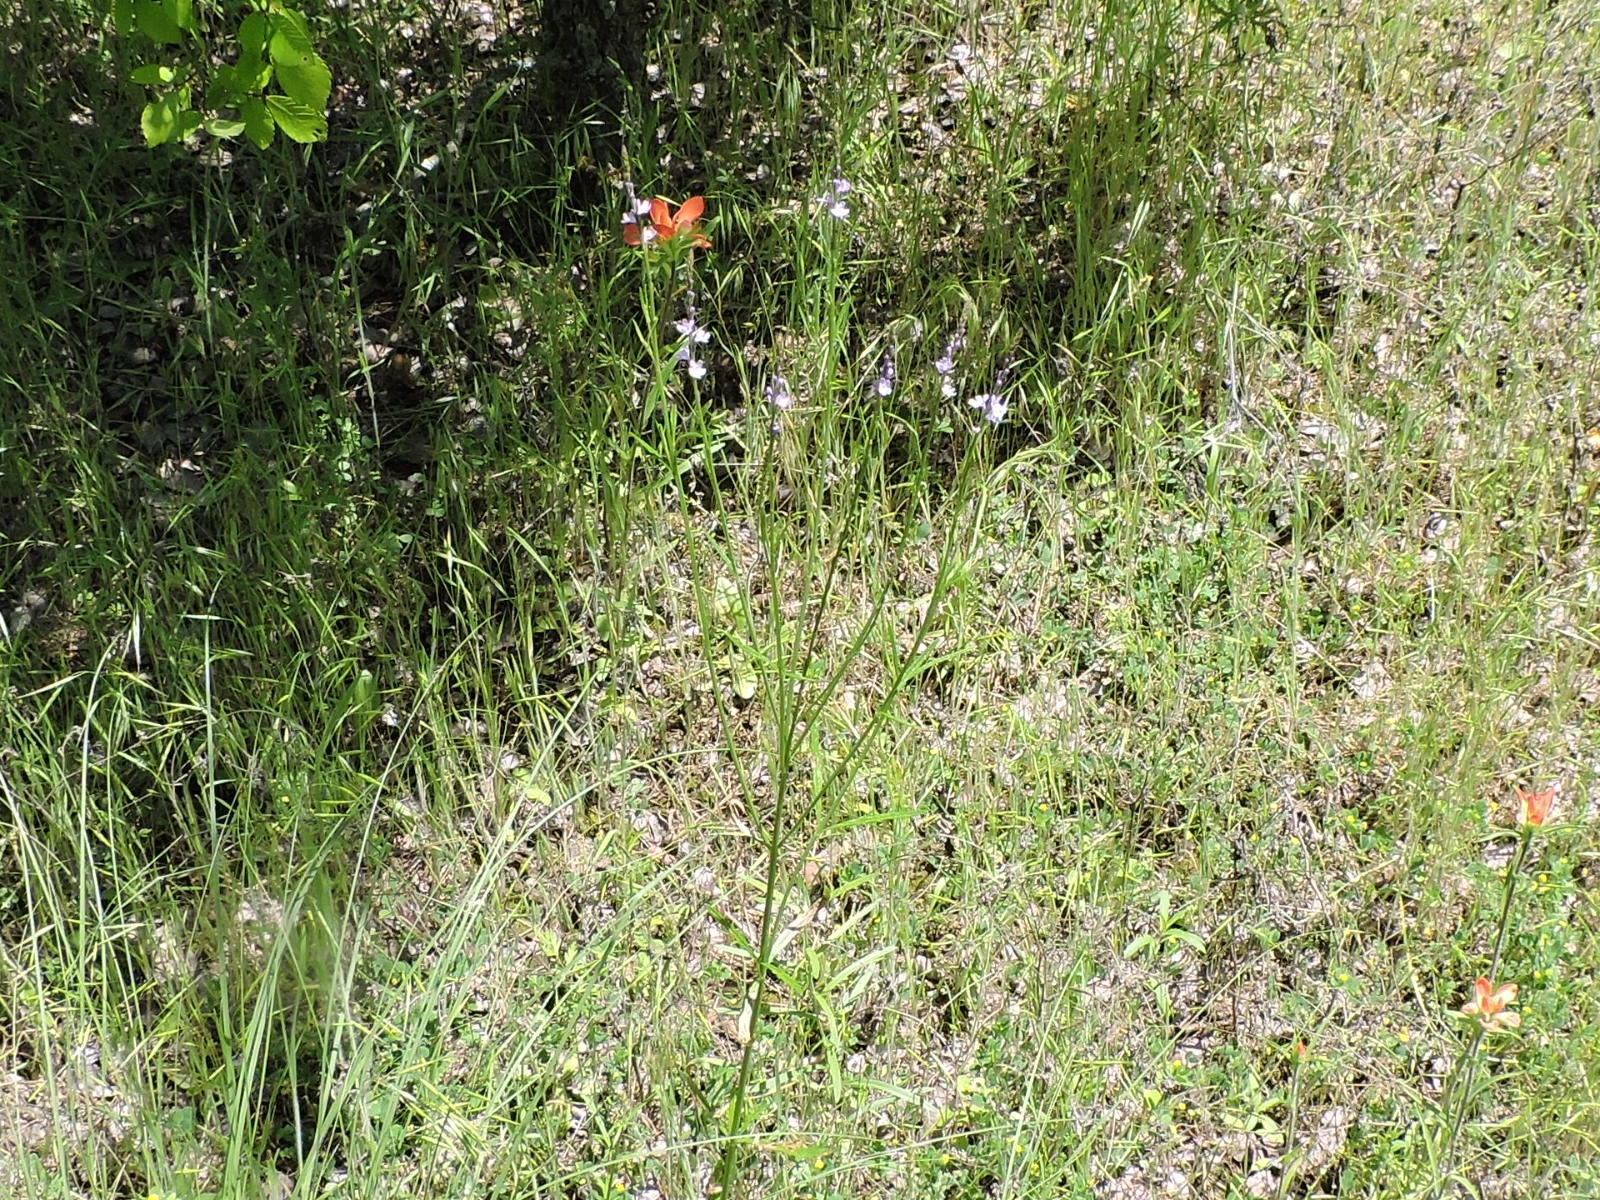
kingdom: Plantae
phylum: Tracheophyta
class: Magnoliopsida
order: Lamiales
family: Verbenaceae
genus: Verbena
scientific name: Verbena halei
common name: Texas vervain
